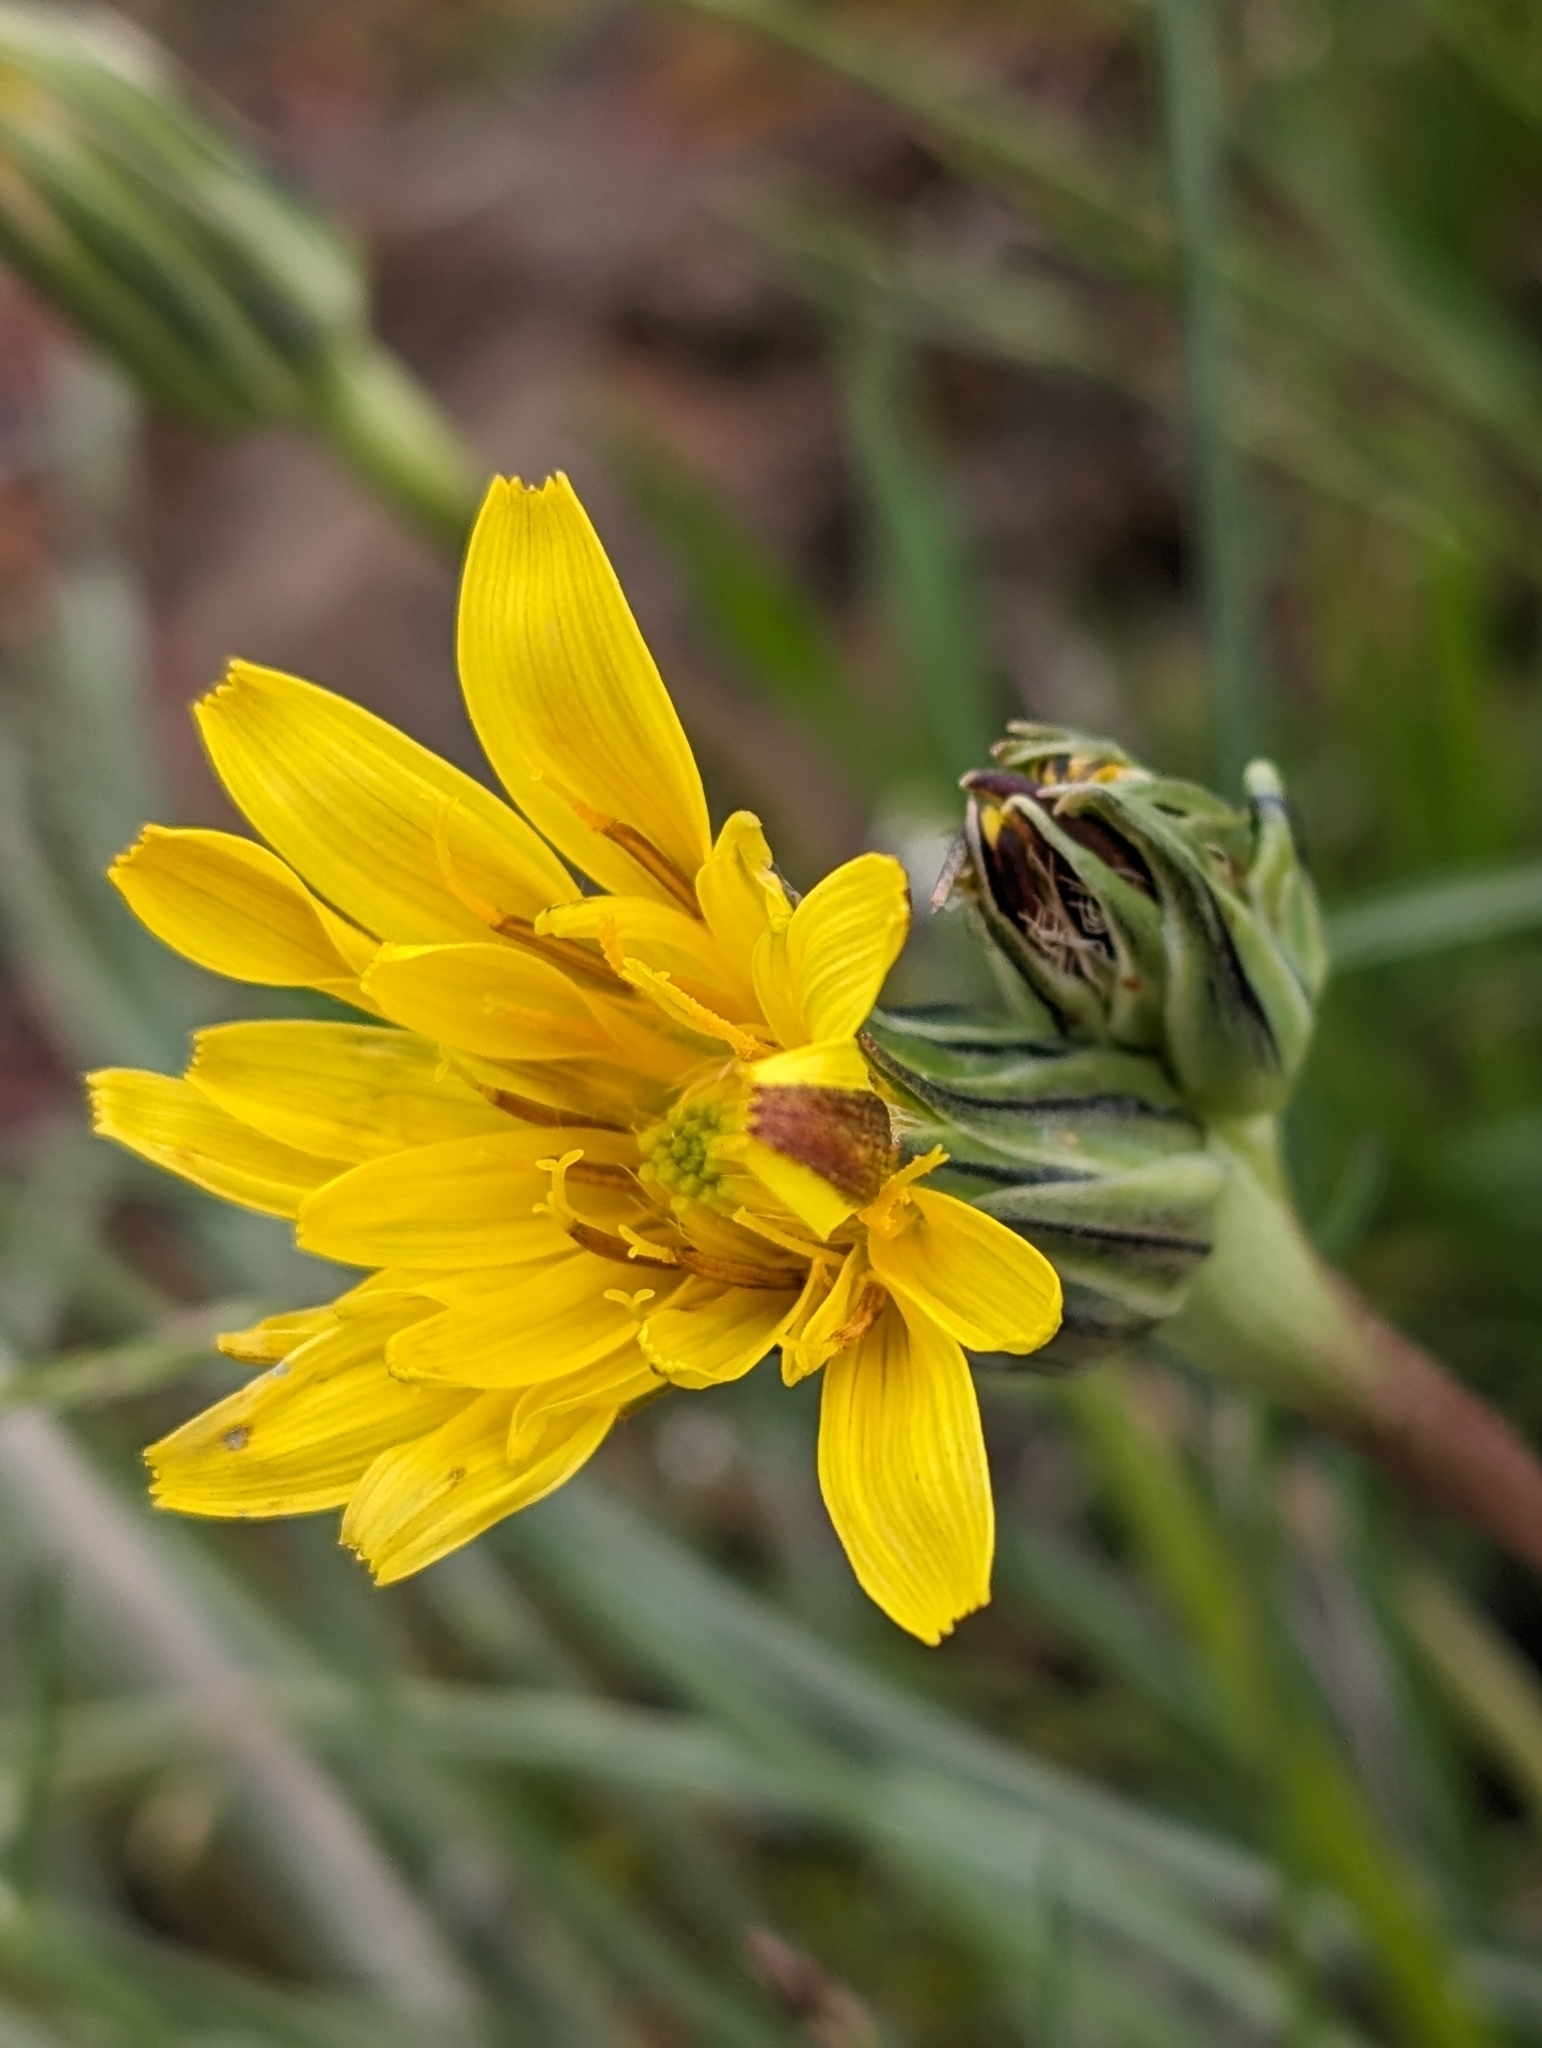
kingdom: Plantae
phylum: Tracheophyta
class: Magnoliopsida
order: Asterales
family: Asteraceae
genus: Microseris
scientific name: Microseris troximoides
